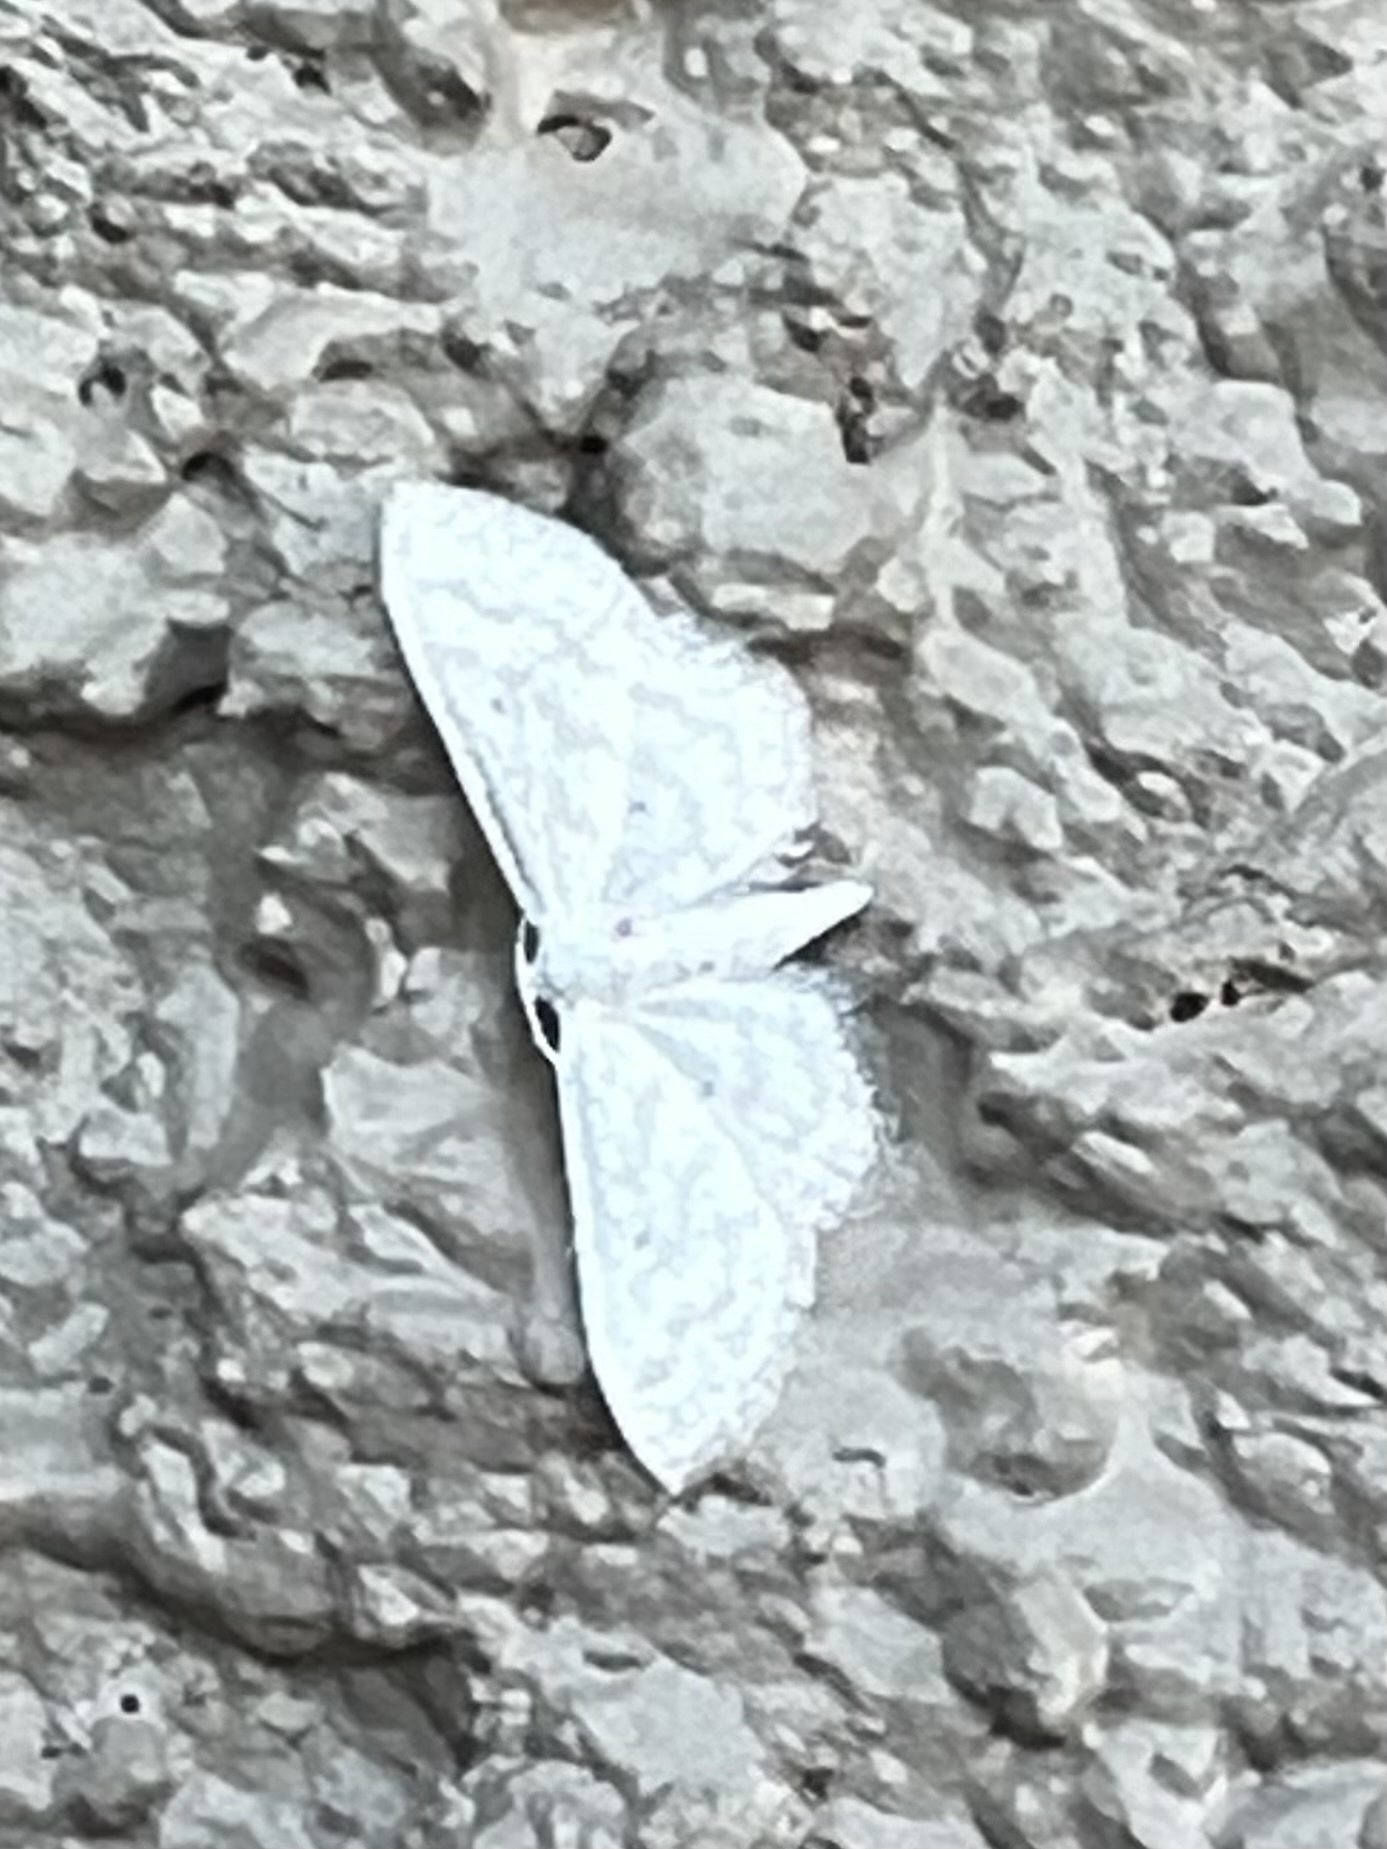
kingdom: Animalia
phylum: Arthropoda
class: Insecta
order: Lepidoptera
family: Geometridae
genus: Lobocleta
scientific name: Lobocleta peralbata
